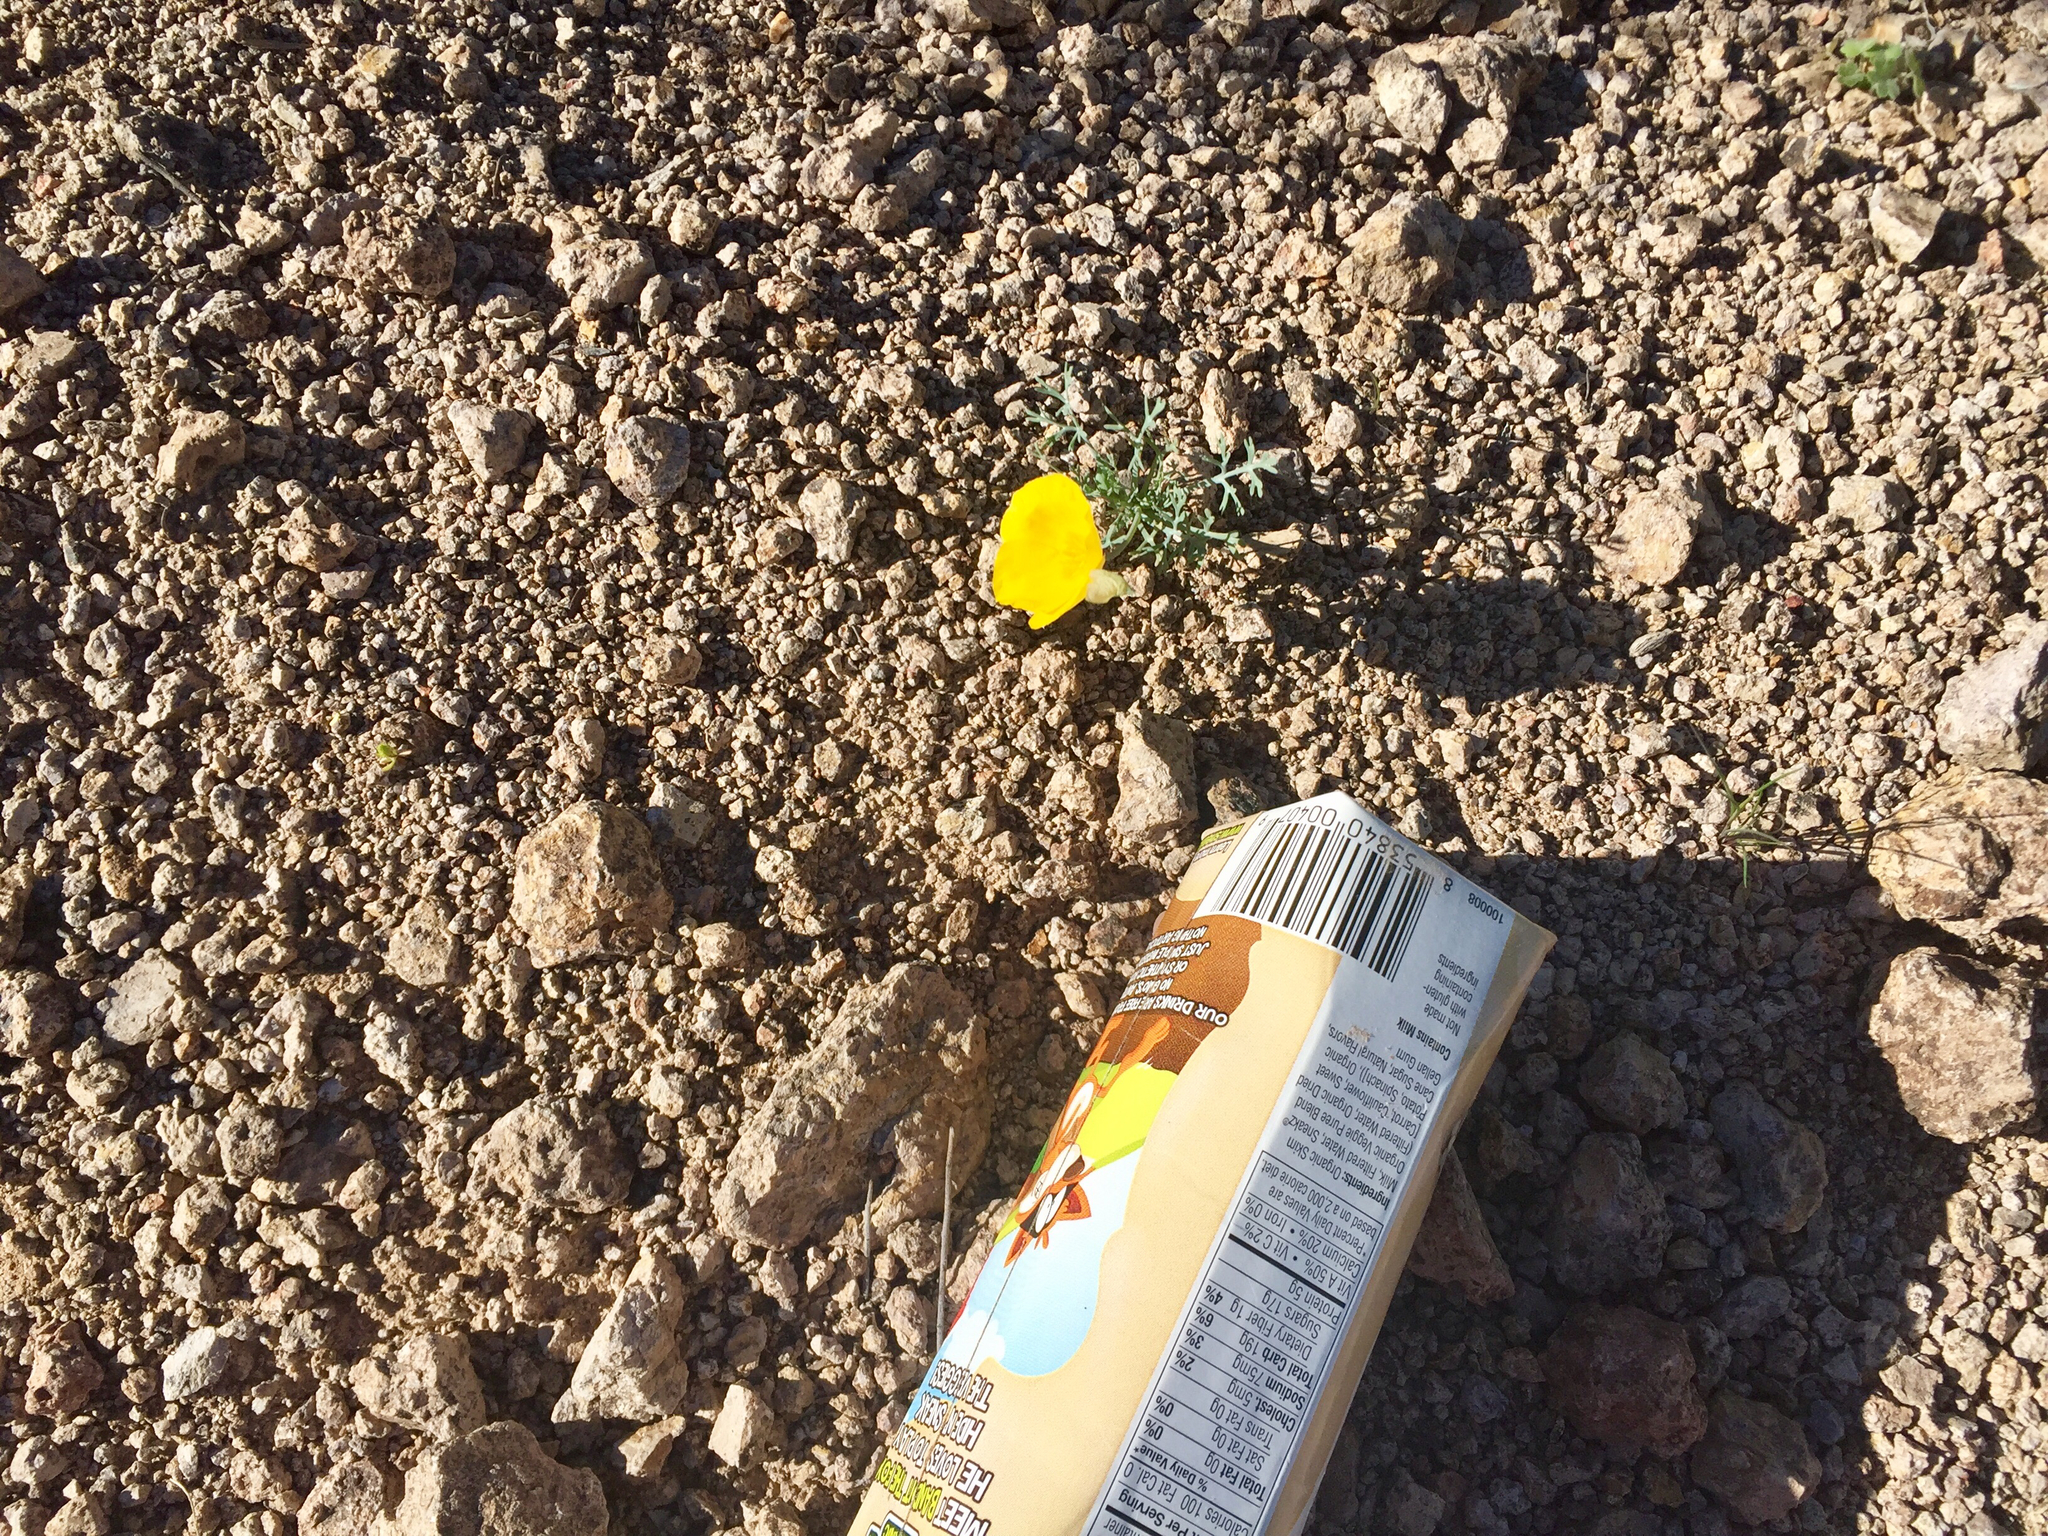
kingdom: Plantae
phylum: Tracheophyta
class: Magnoliopsida
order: Ranunculales
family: Papaveraceae
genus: Eschscholzia
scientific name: Eschscholzia californica
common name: California poppy
